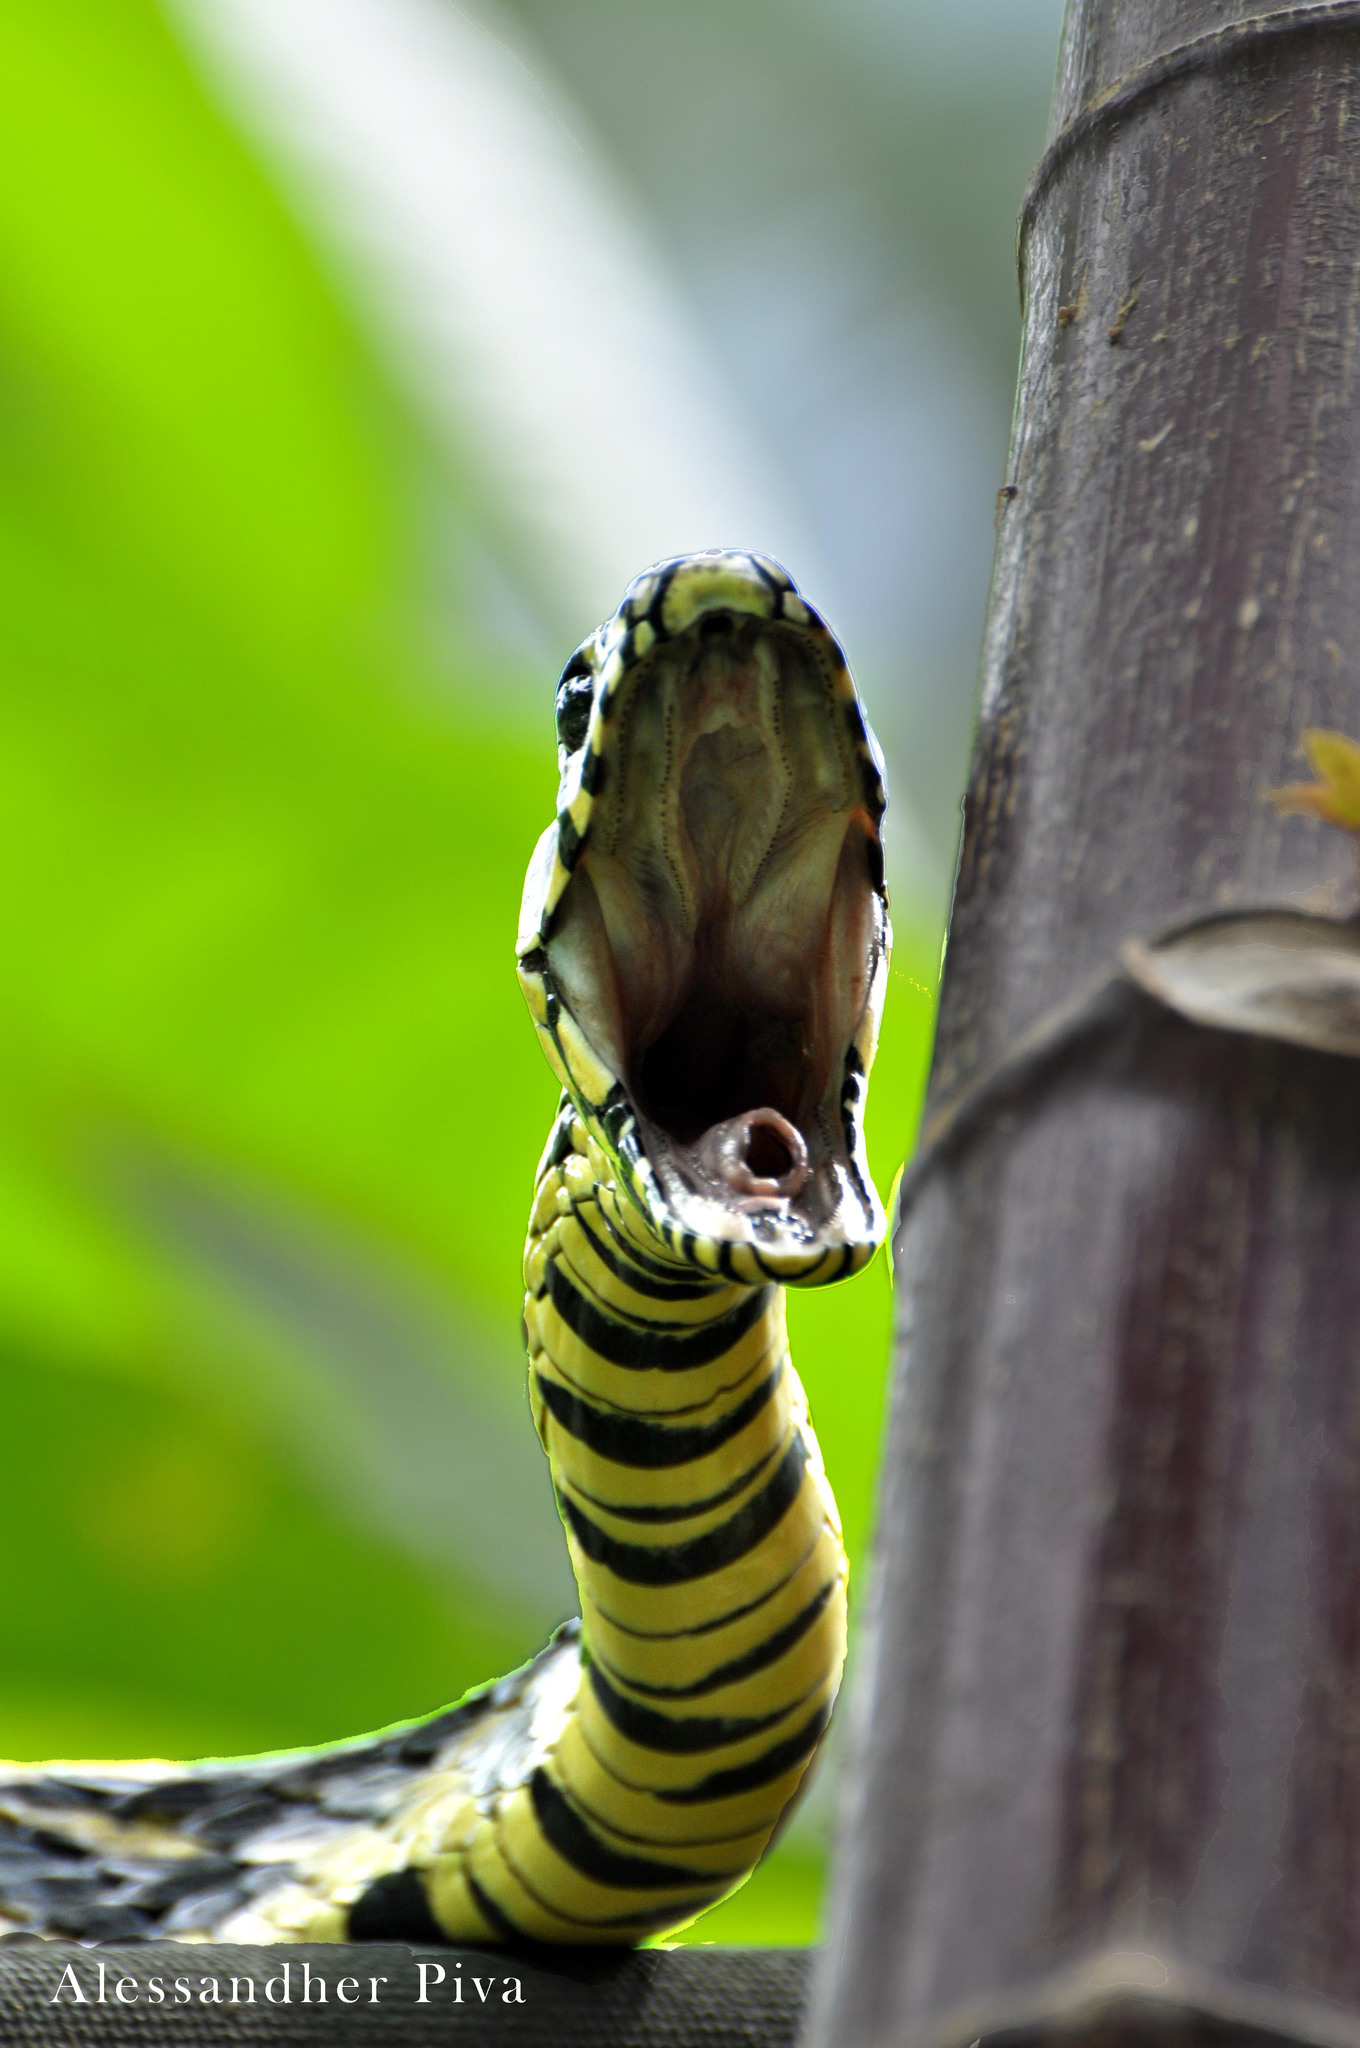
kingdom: Animalia
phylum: Chordata
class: Squamata
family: Colubridae
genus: Spilotes
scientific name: Spilotes pullatus
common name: Chicken snake
